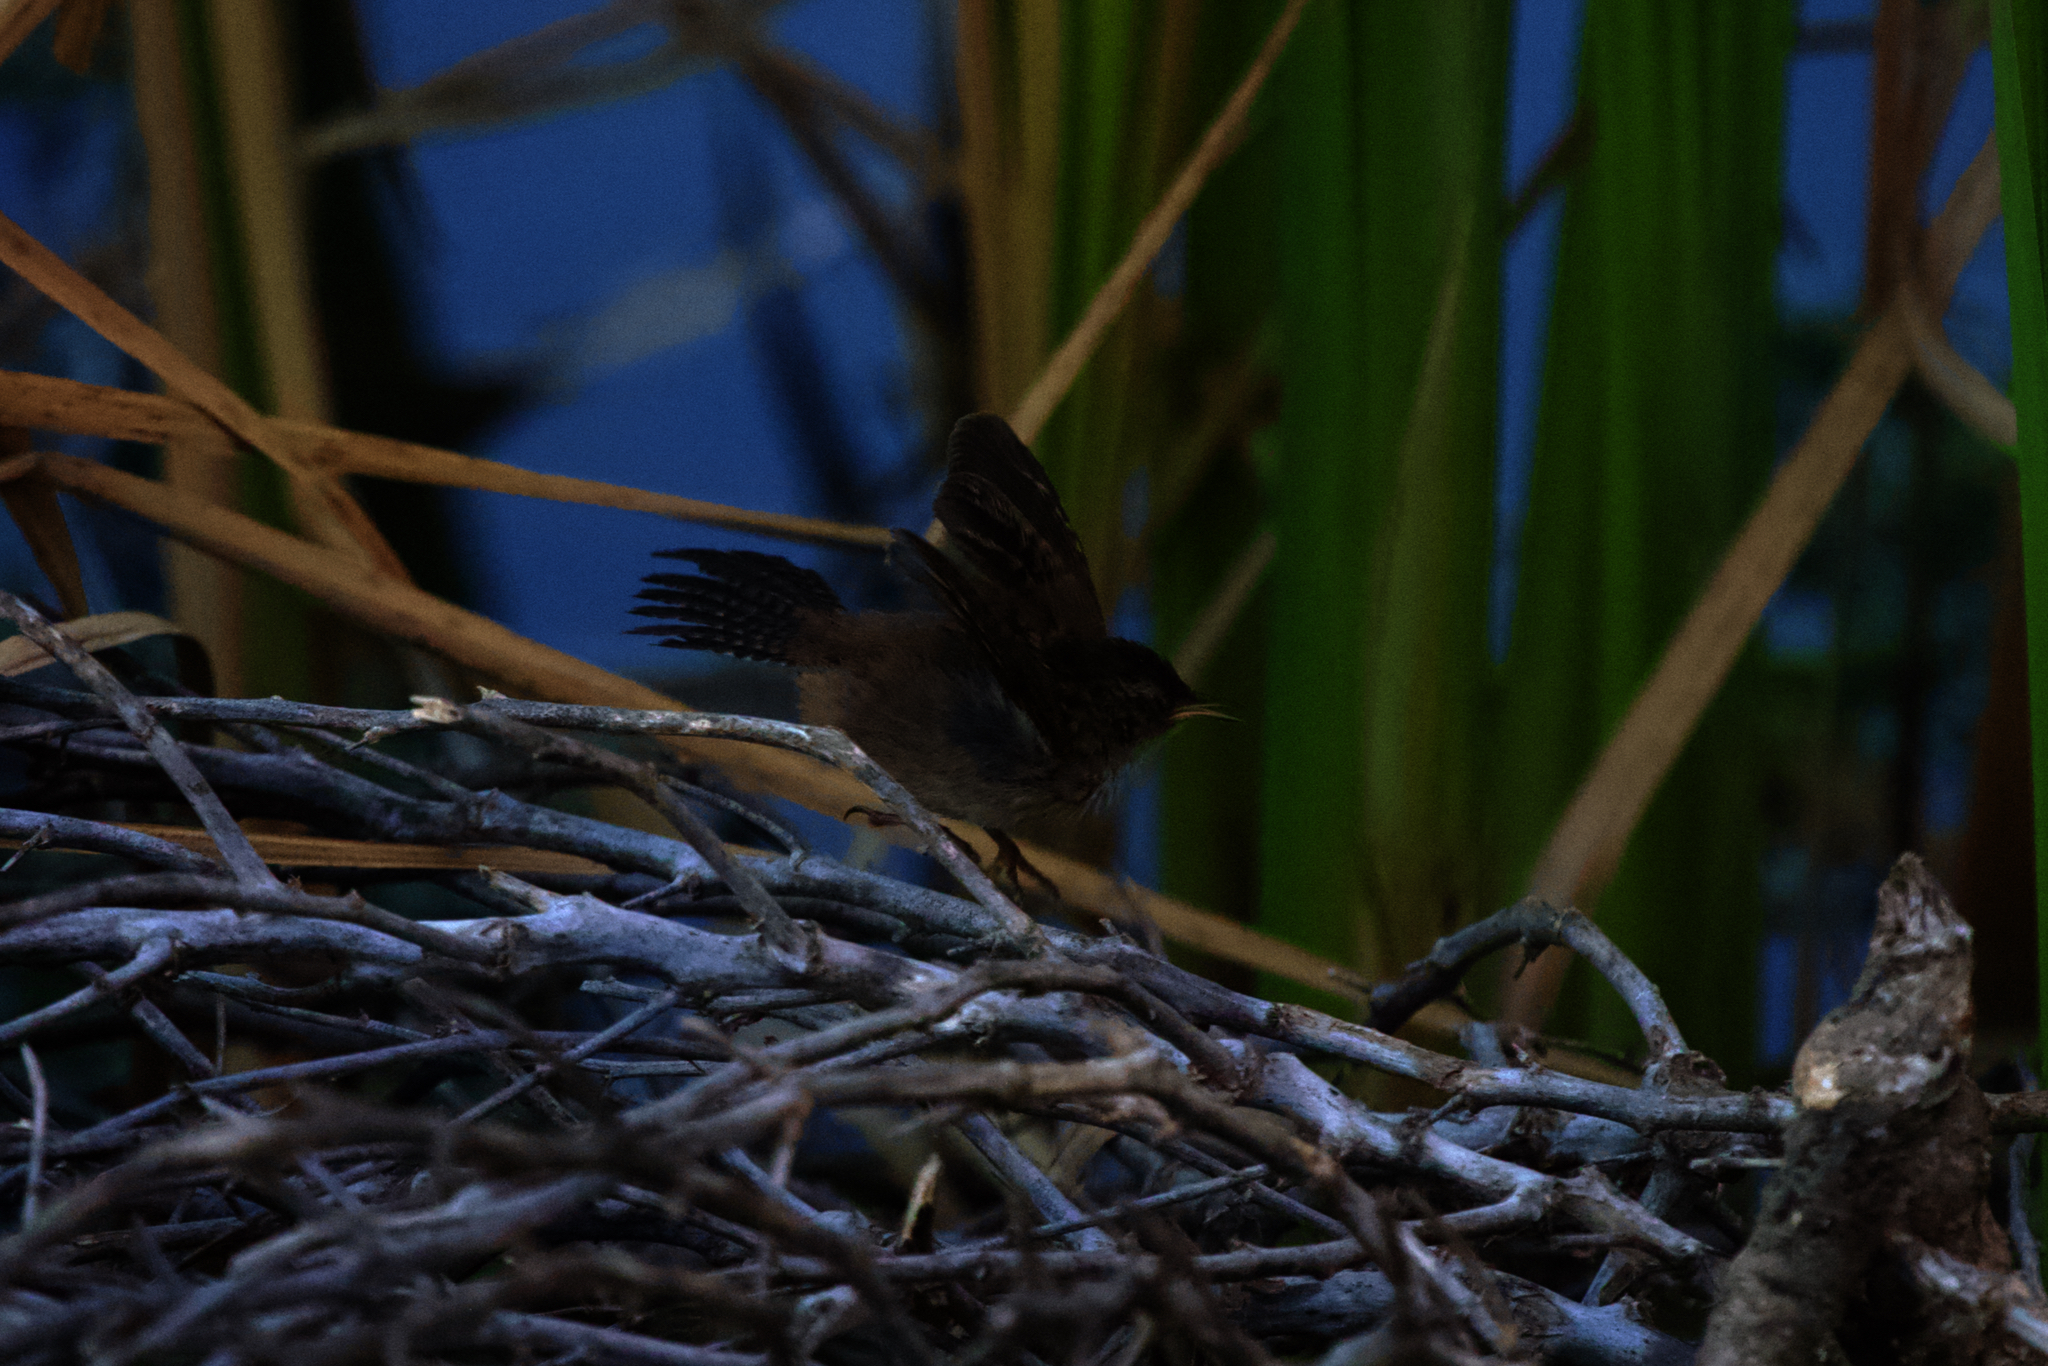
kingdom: Animalia
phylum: Chordata
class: Aves
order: Passeriformes
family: Troglodytidae
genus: Cistothorus
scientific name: Cistothorus palustris
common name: Marsh wren
